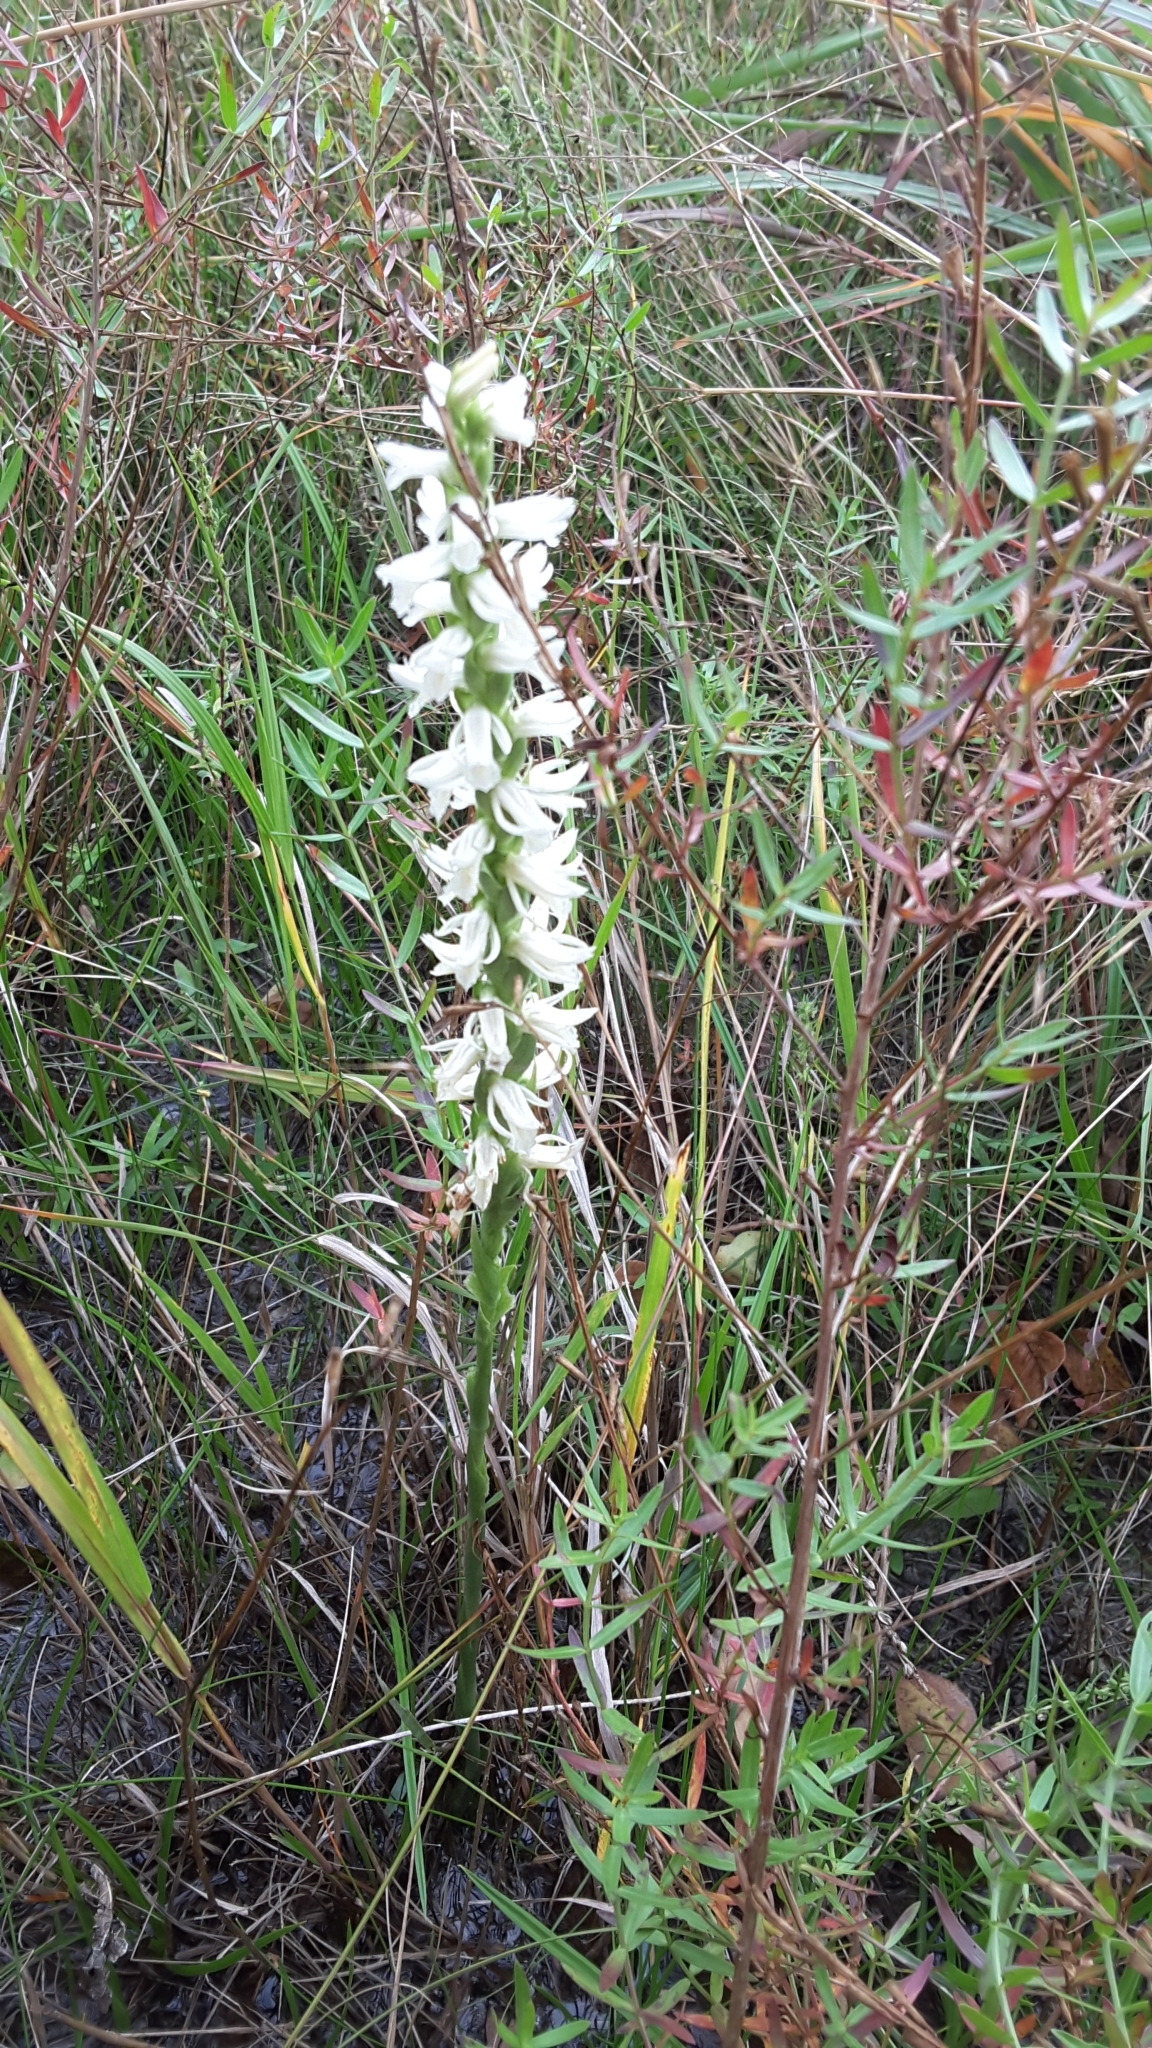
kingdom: Plantae
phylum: Tracheophyta
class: Liliopsida
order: Asparagales
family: Orchidaceae
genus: Spiranthes
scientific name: Spiranthes magnicamporum
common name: Great plains ladies'-tresses
